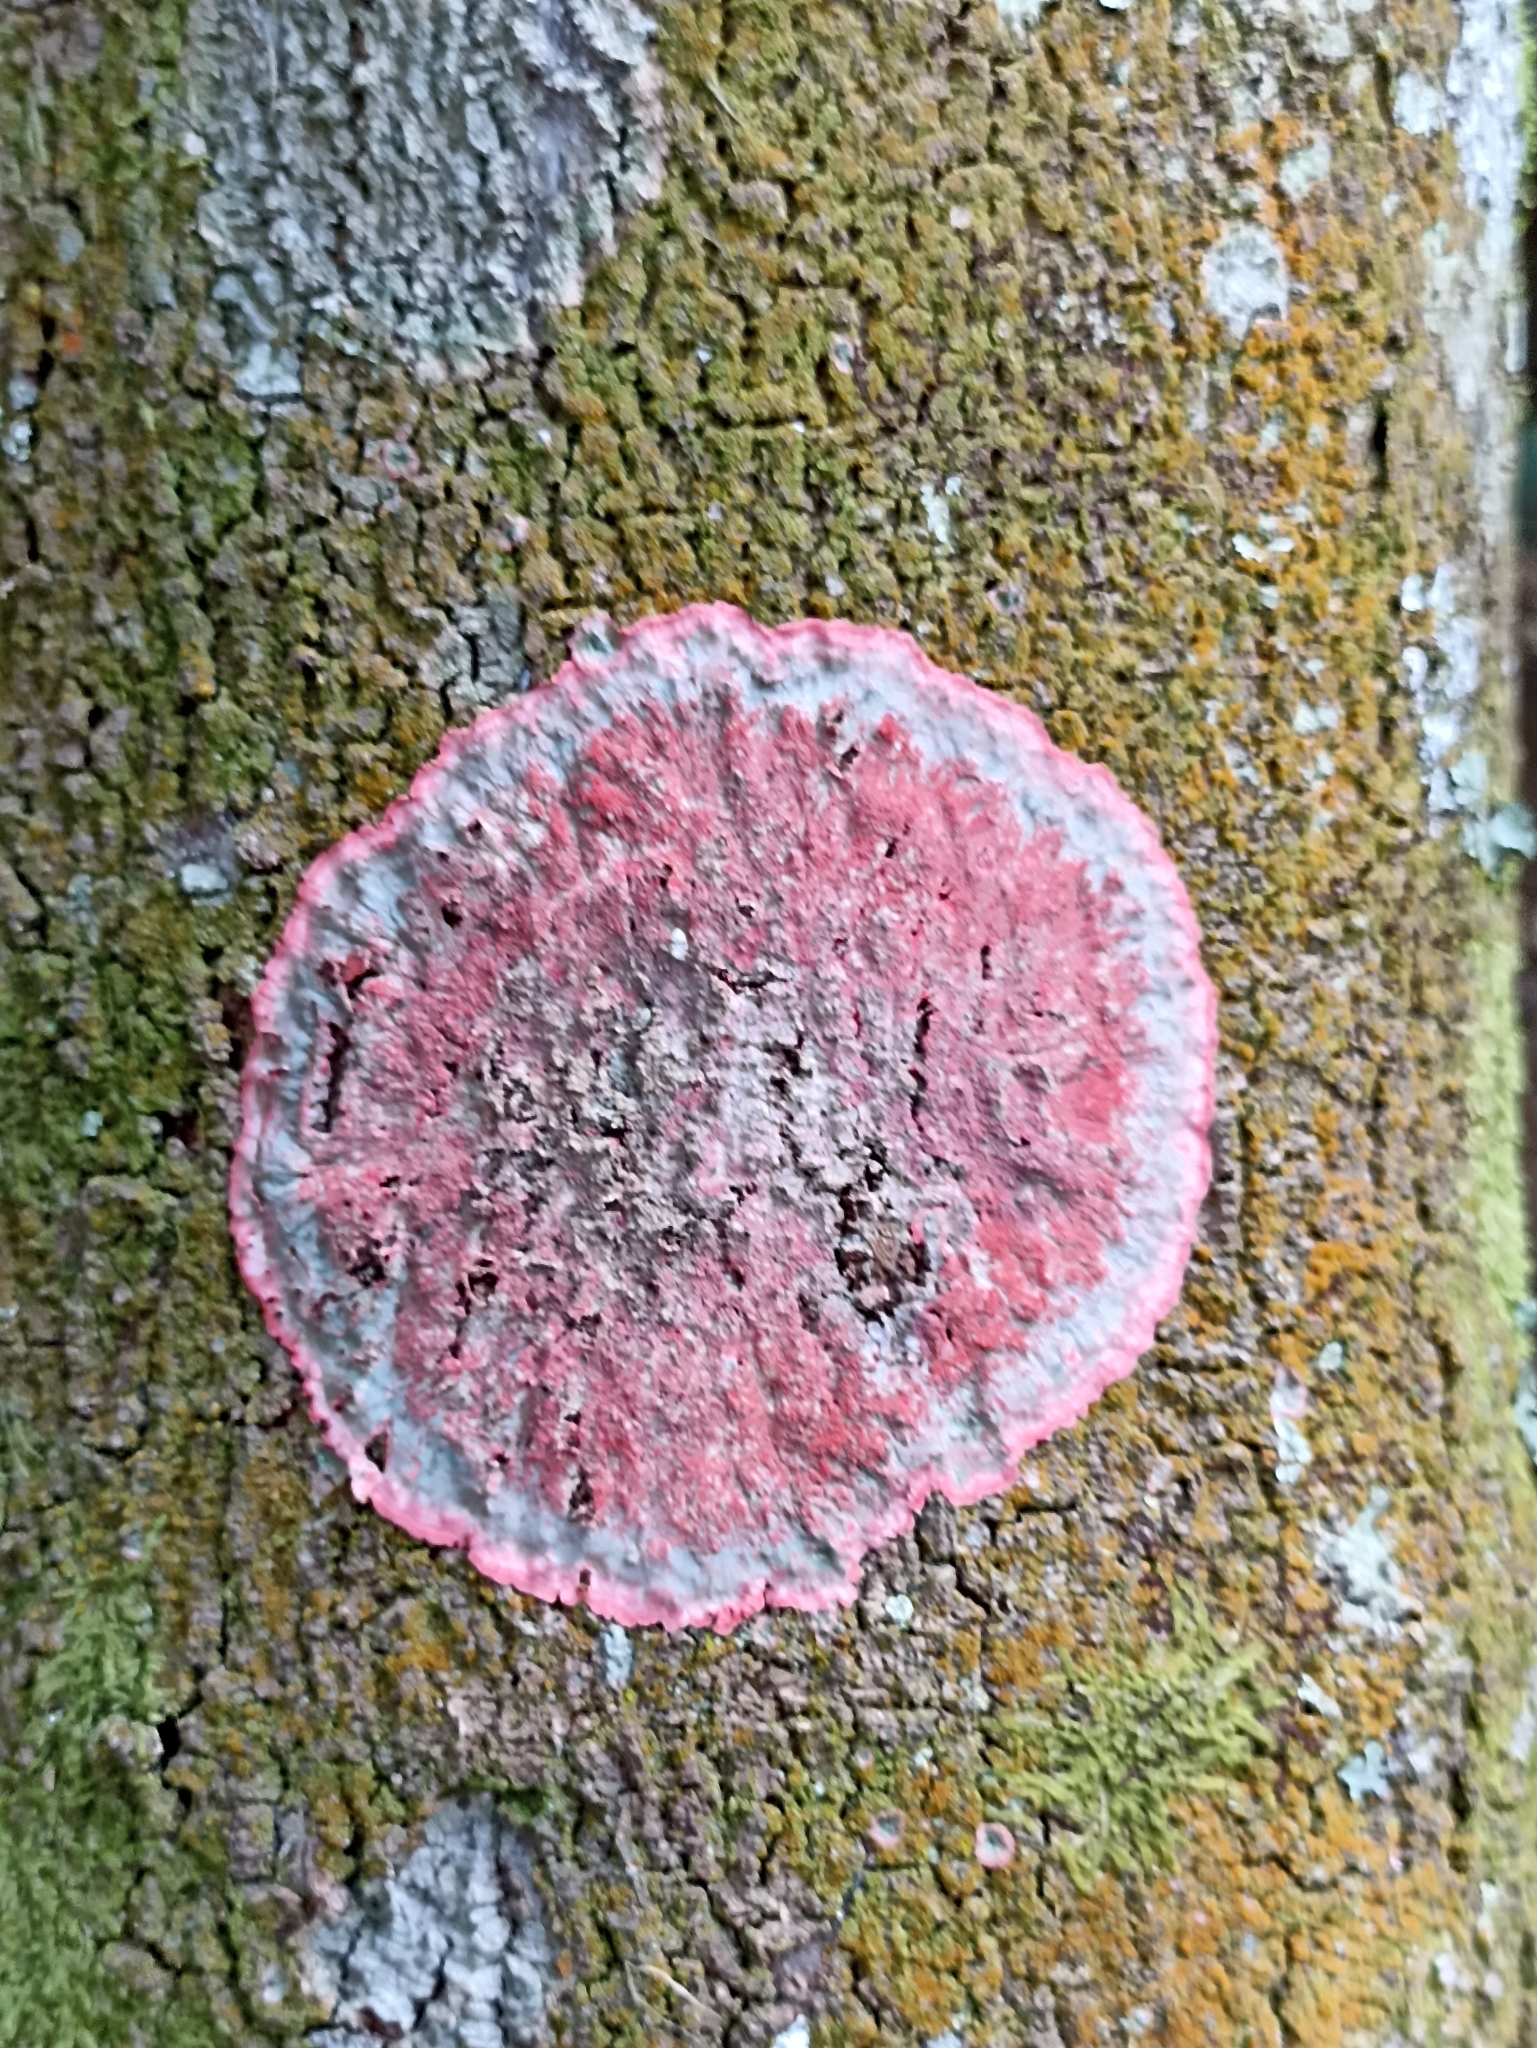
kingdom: Fungi
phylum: Ascomycota
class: Arthoniomycetes
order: Arthoniales
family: Arthoniaceae
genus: Herpothallon
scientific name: Herpothallon rubrocinctum
